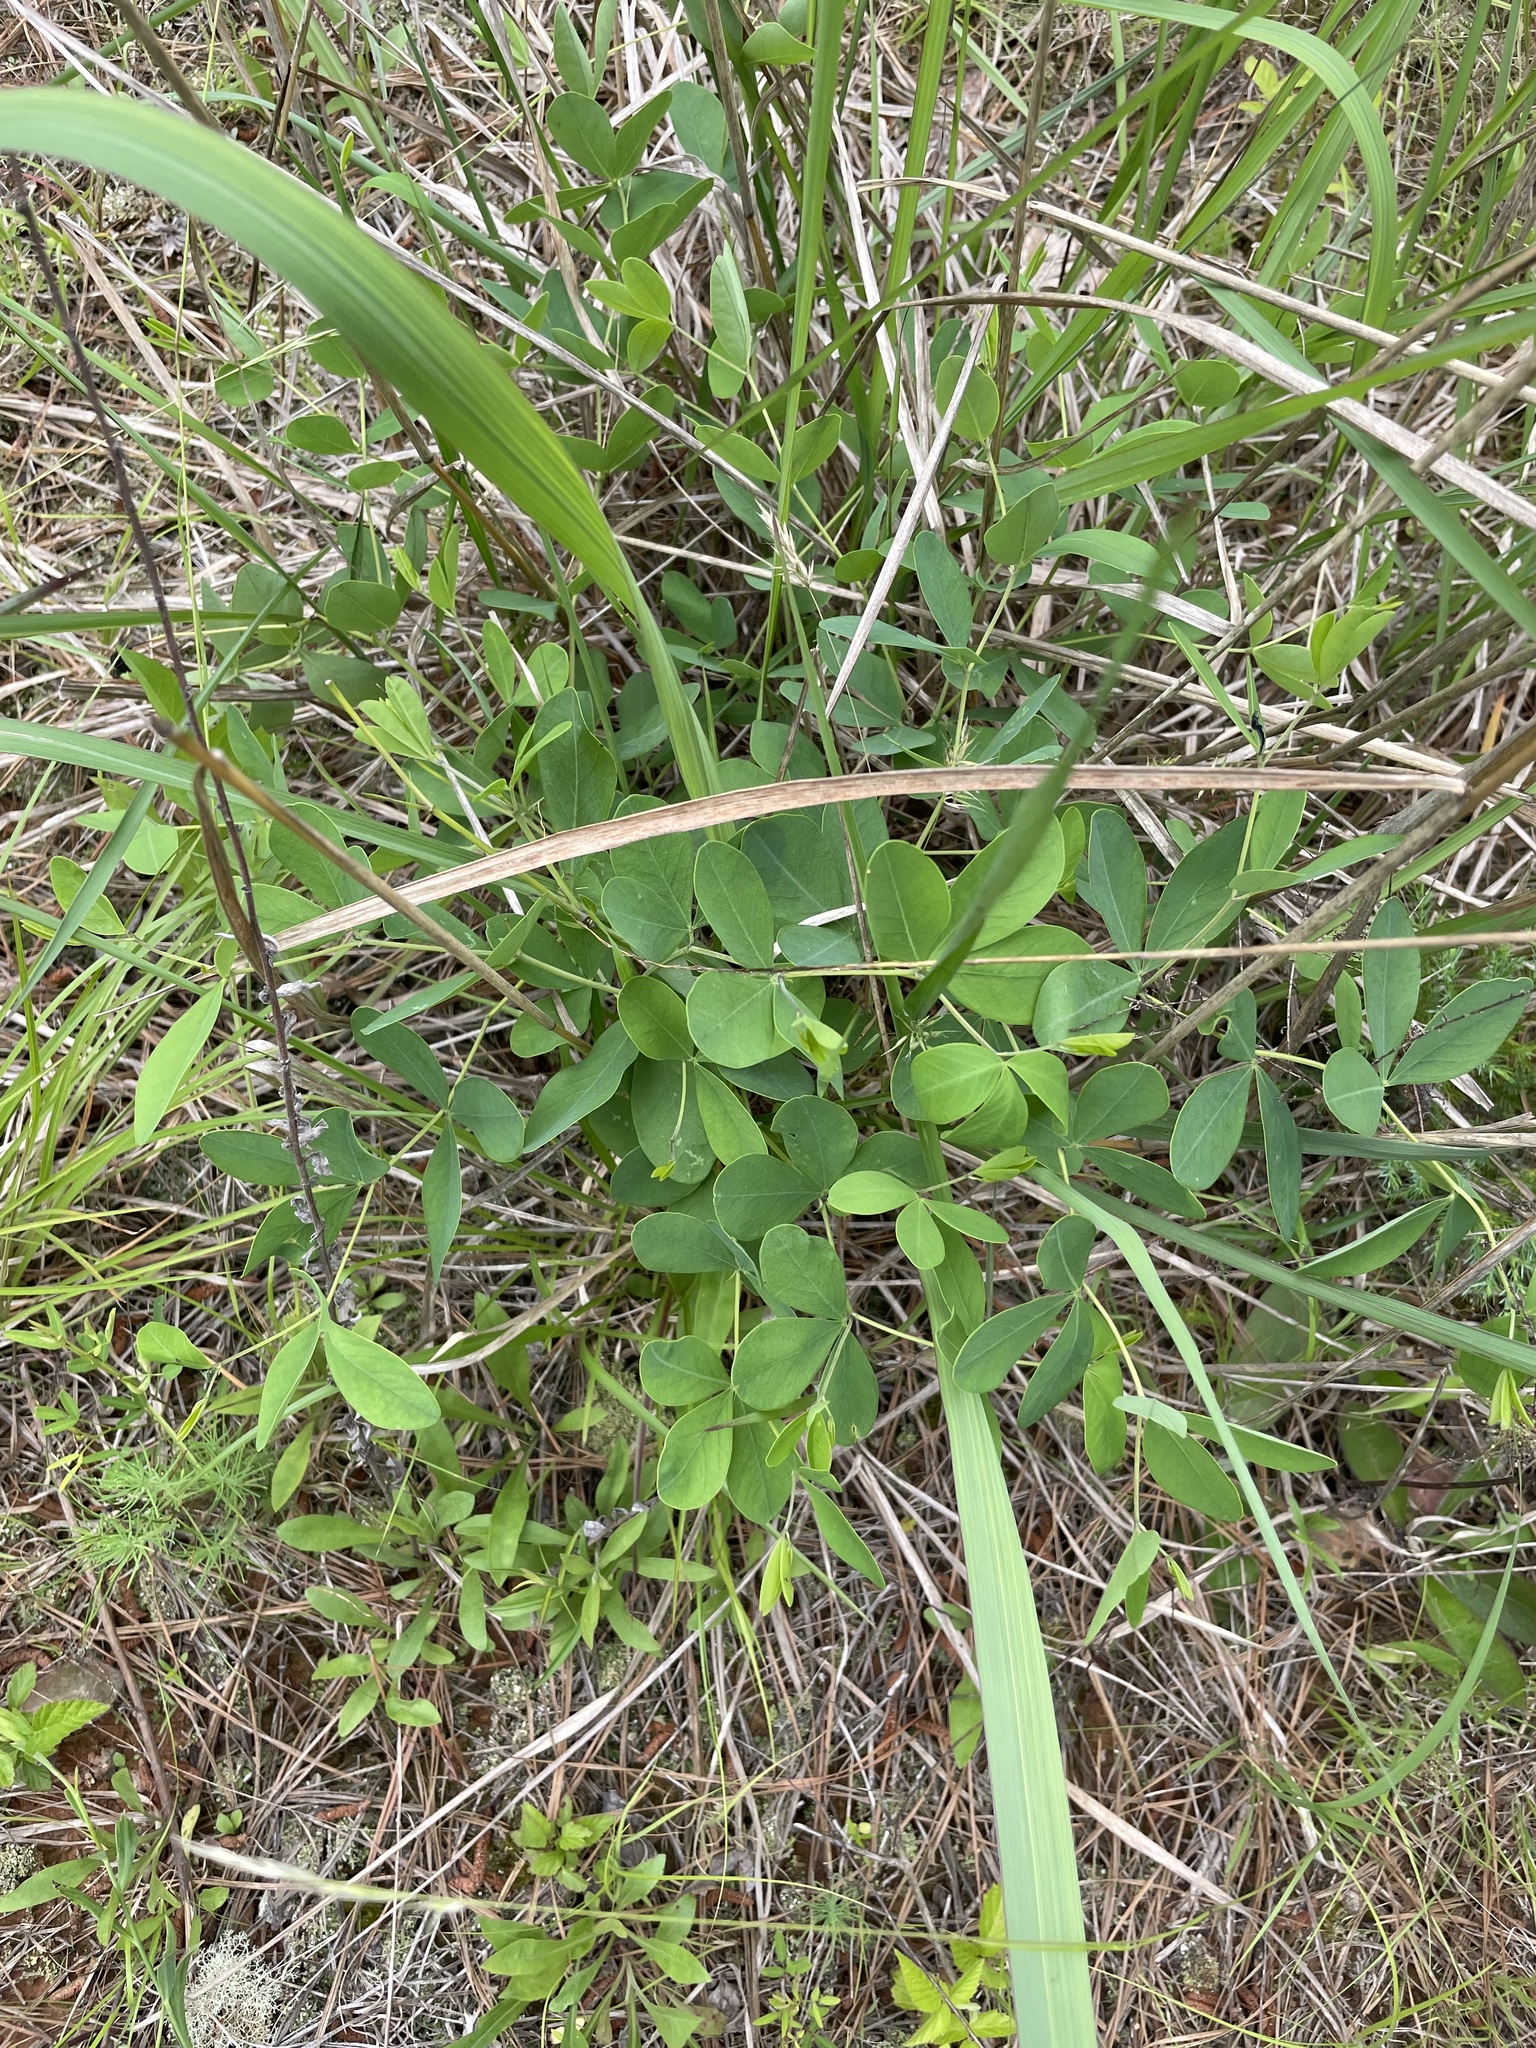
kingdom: Plantae
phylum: Tracheophyta
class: Magnoliopsida
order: Fabales
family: Fabaceae
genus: Baptisia
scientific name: Baptisia alba
